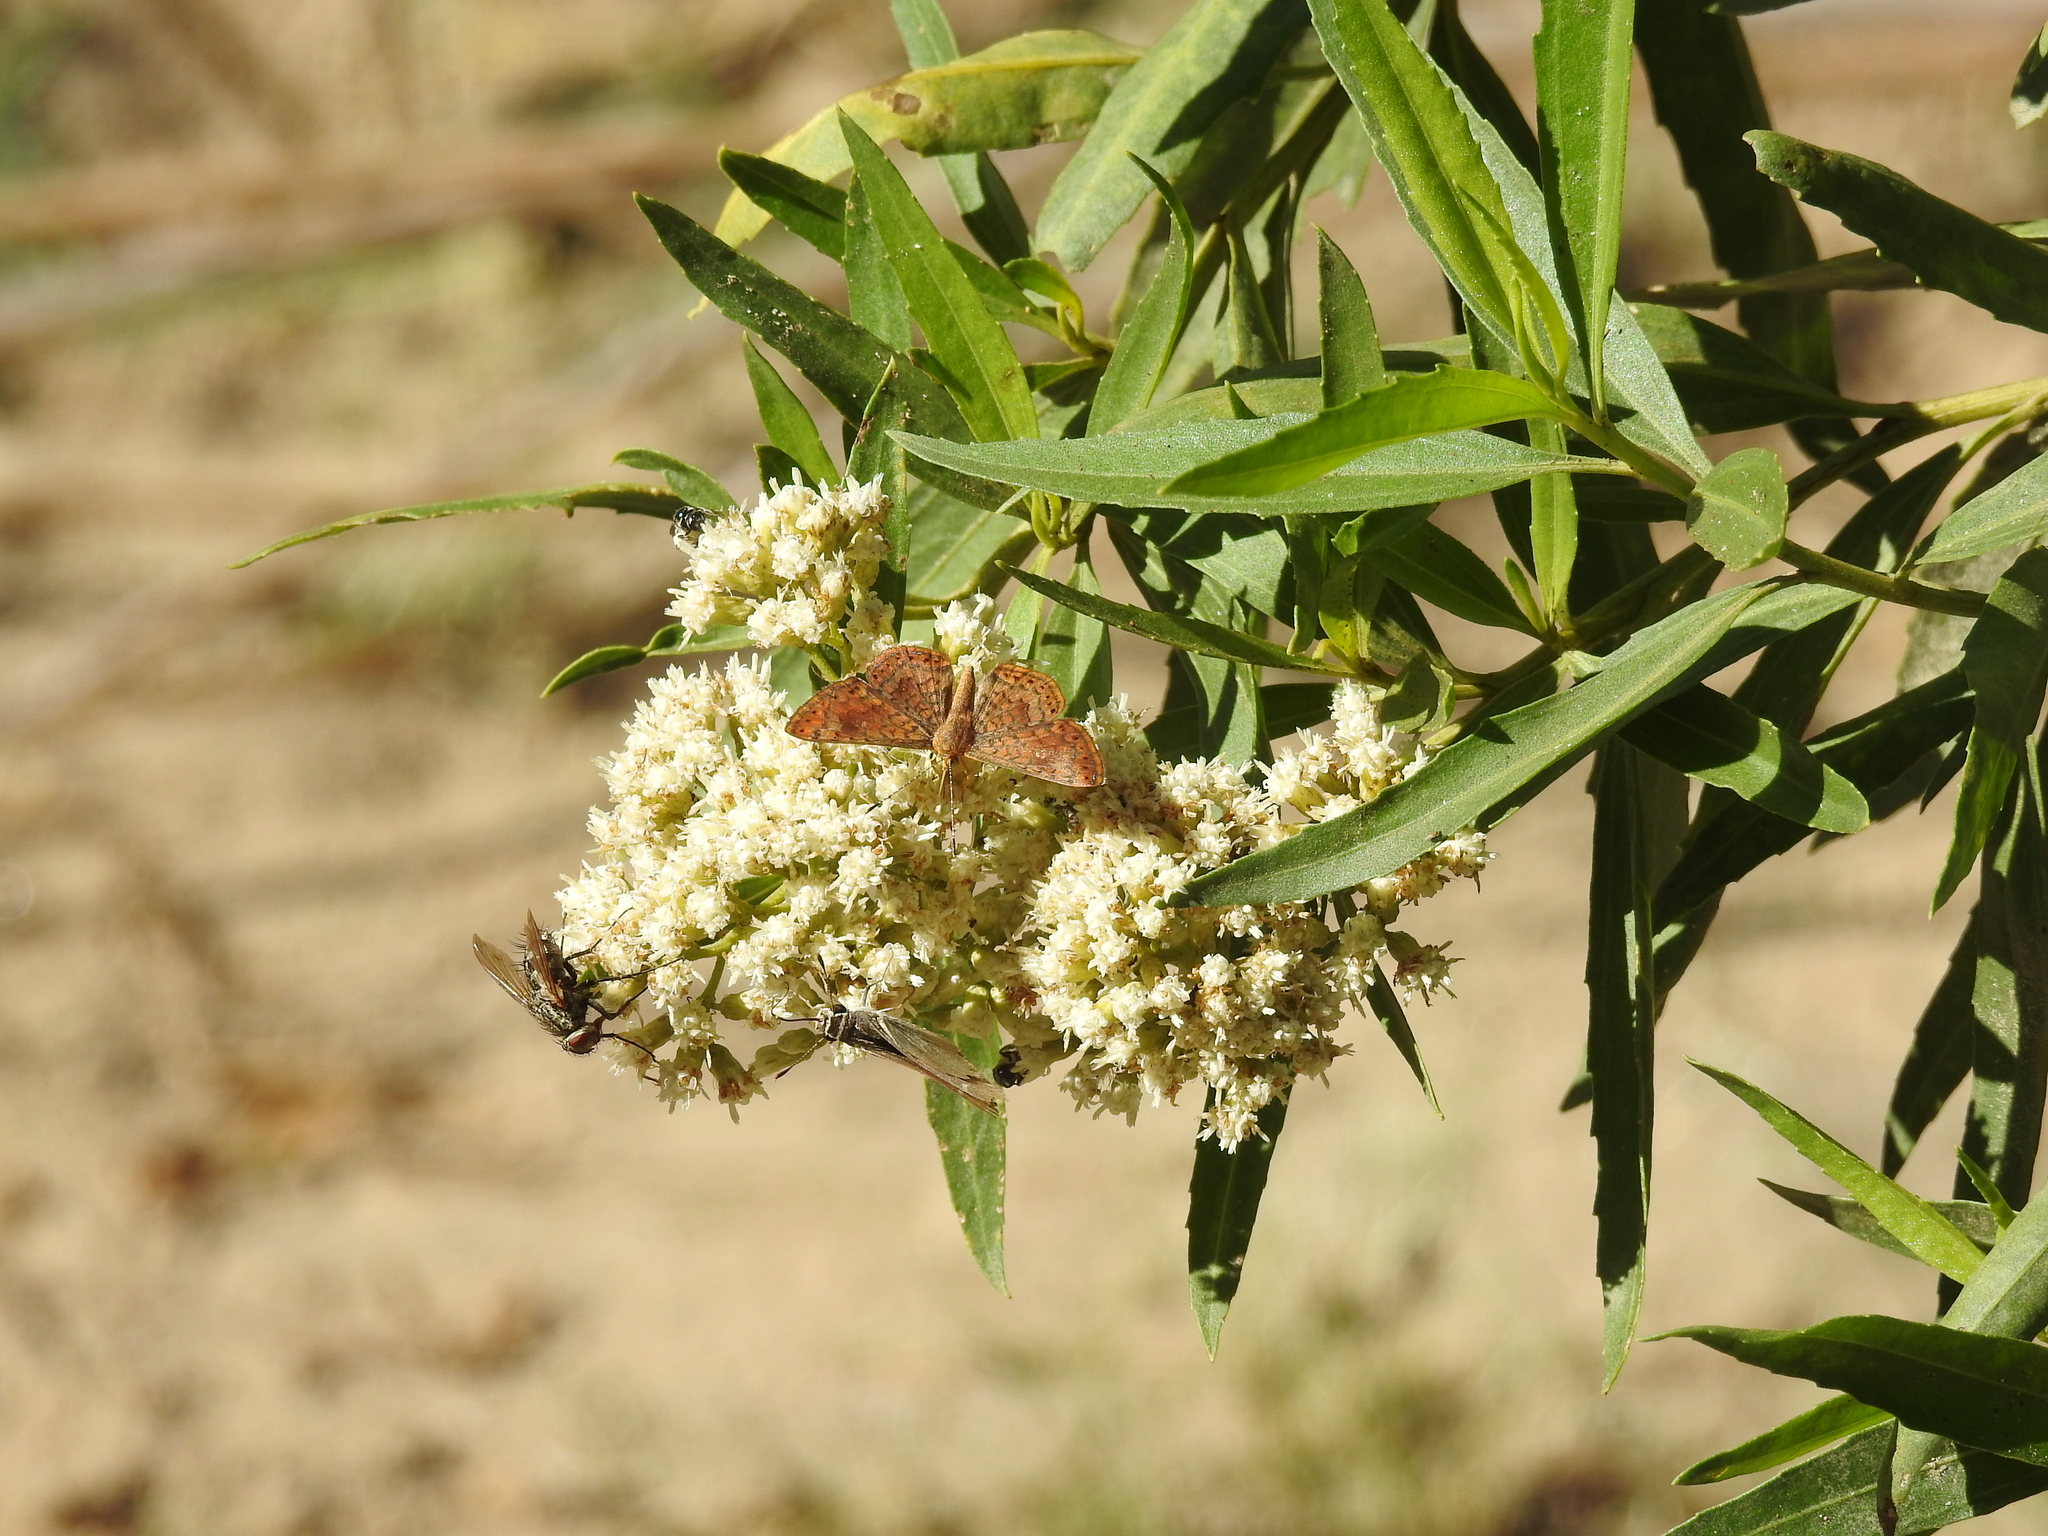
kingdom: Animalia
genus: Calephelis
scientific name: Calephelis nemesis
